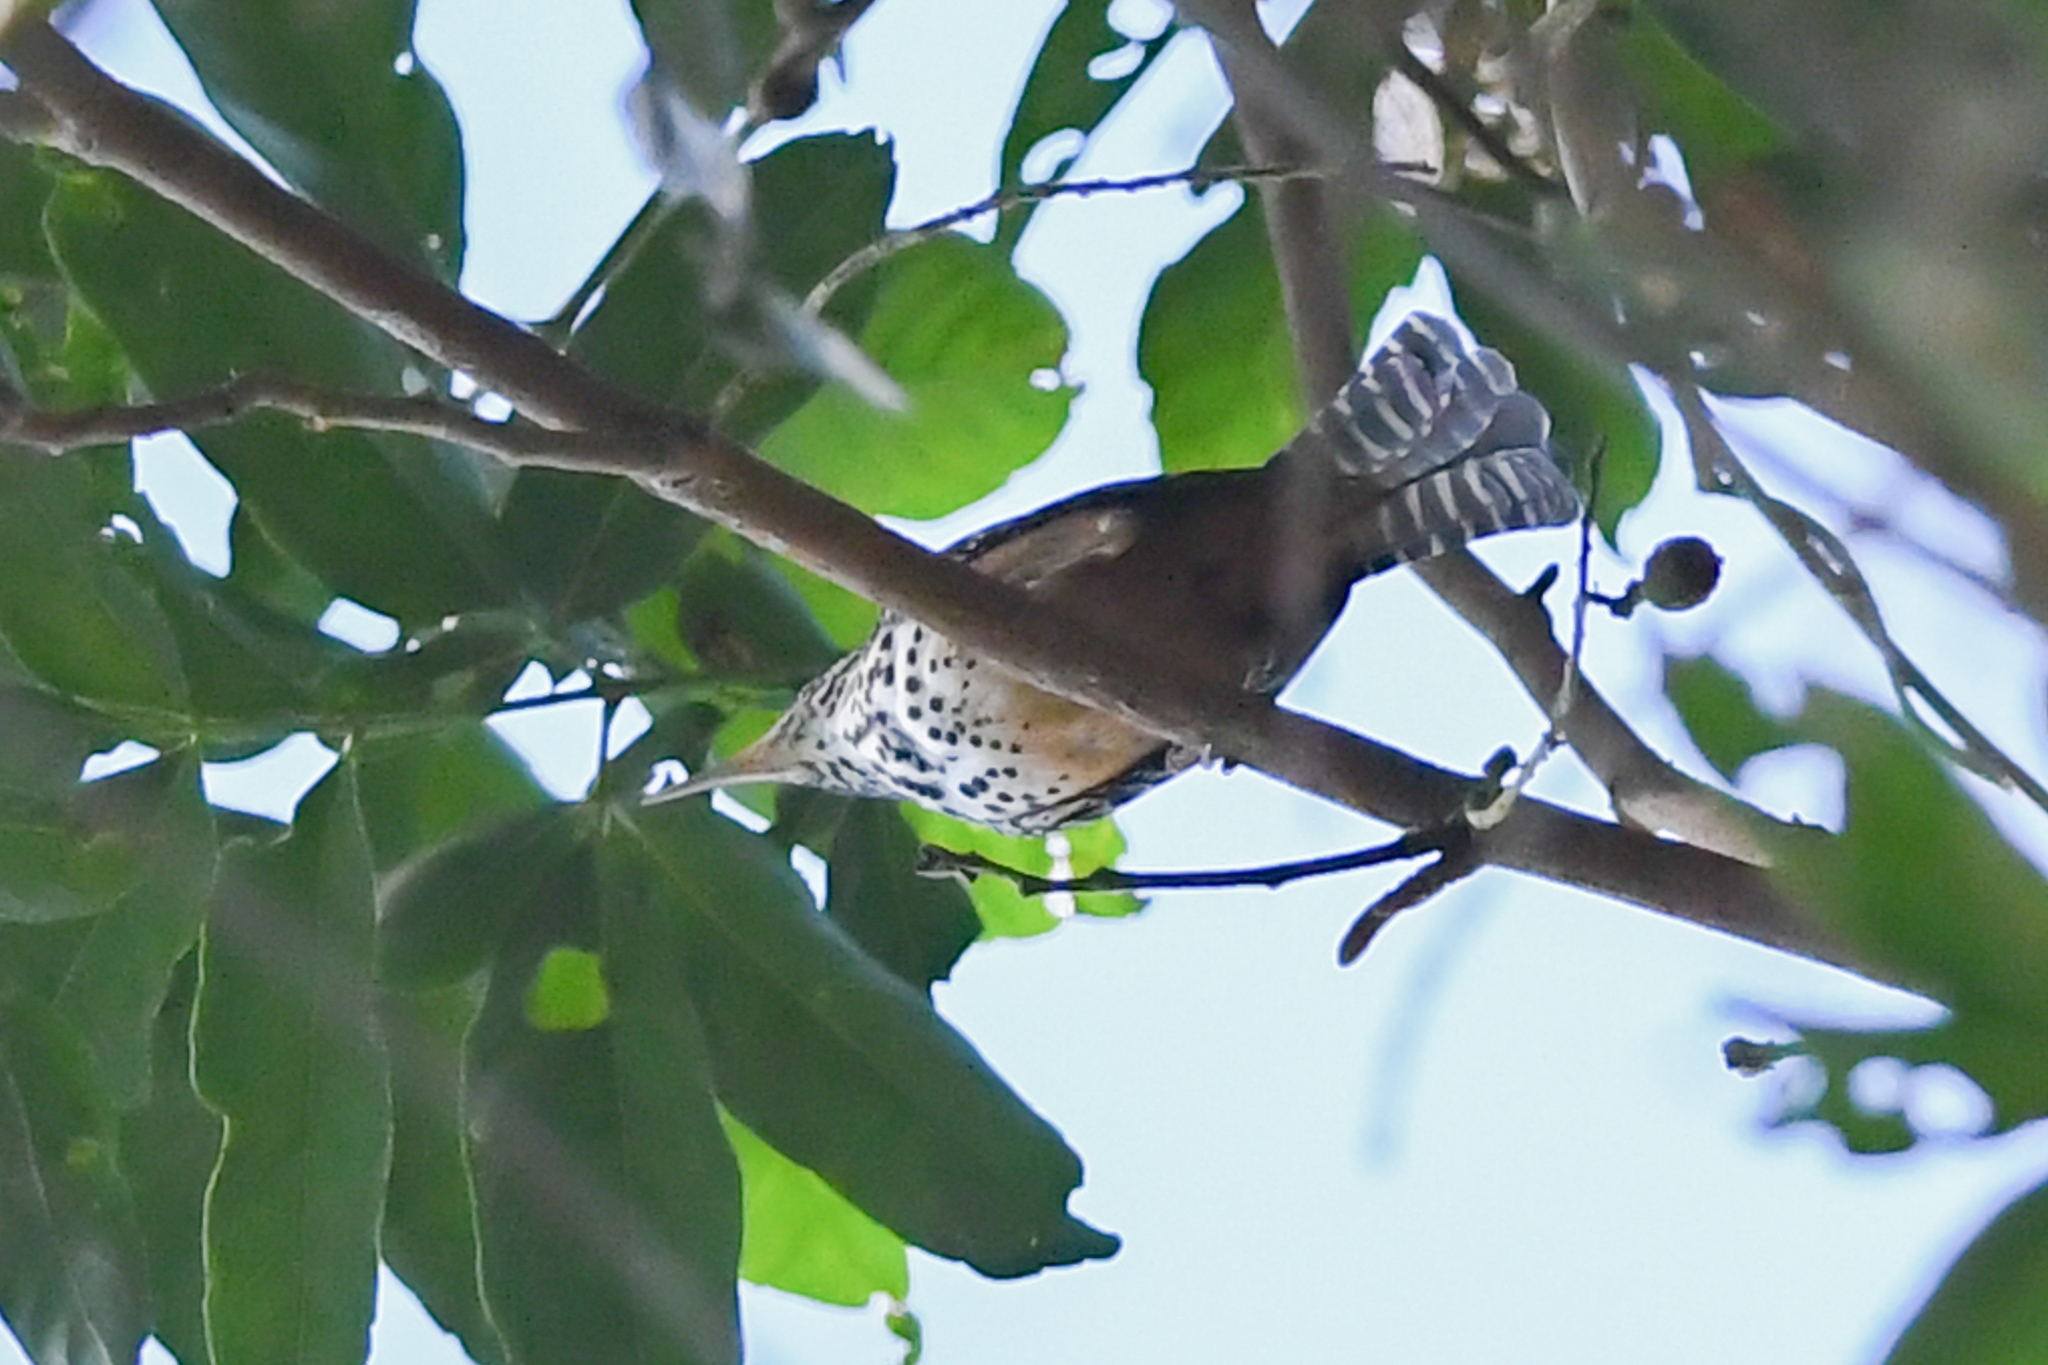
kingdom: Animalia
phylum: Chordata
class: Aves
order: Passeriformes
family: Troglodytidae
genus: Campylorhynchus
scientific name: Campylorhynchus zonatus
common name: Band-backed wren
